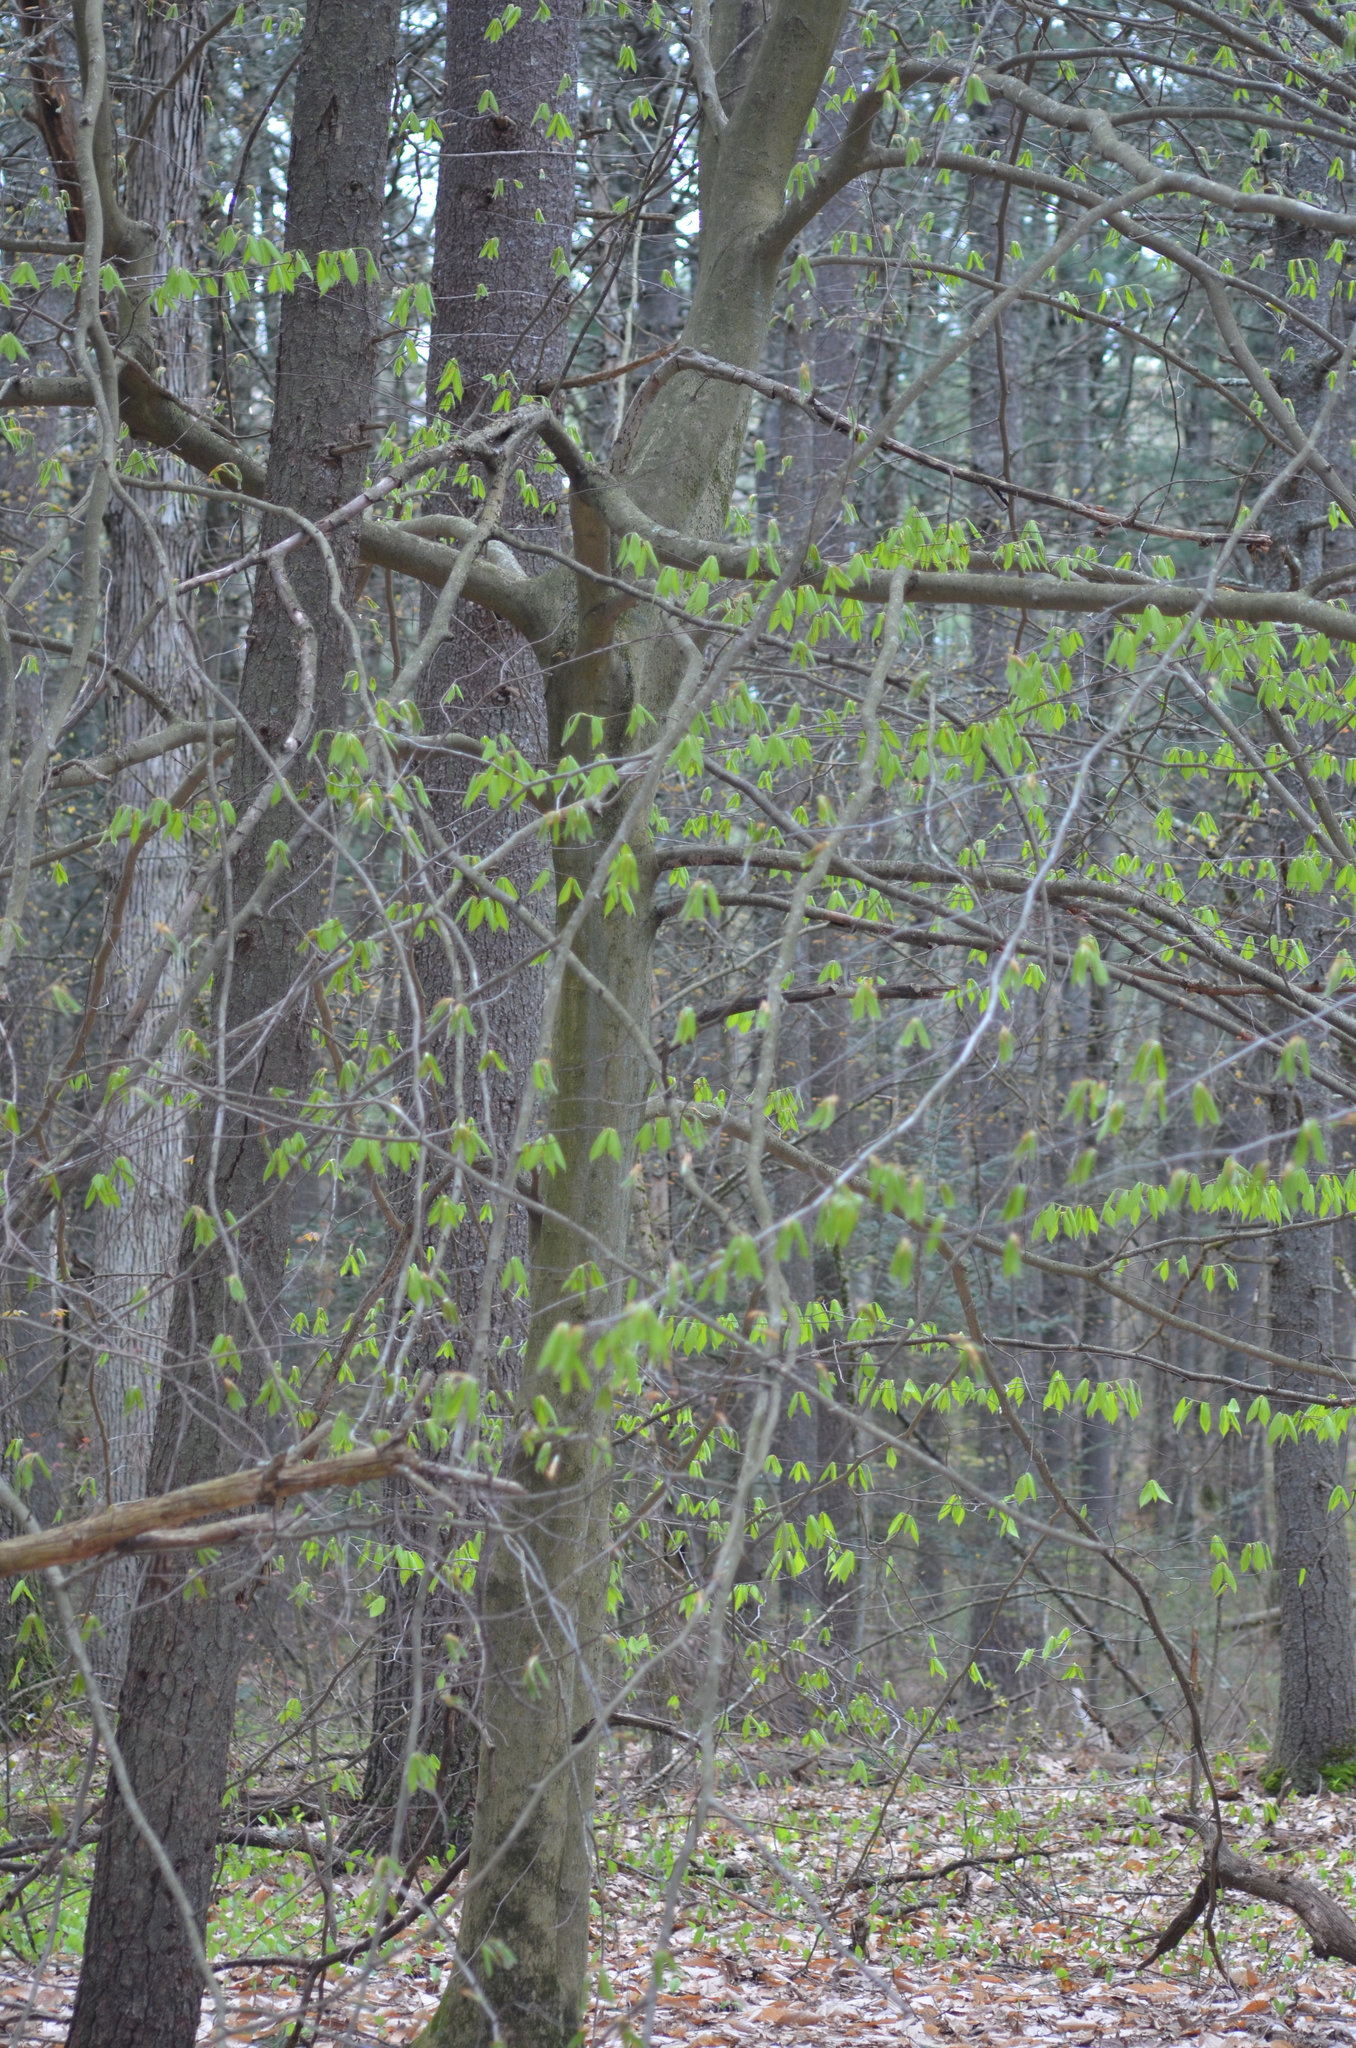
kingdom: Plantae
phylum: Tracheophyta
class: Magnoliopsida
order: Fagales
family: Fagaceae
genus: Fagus
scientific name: Fagus grandifolia
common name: American beech
